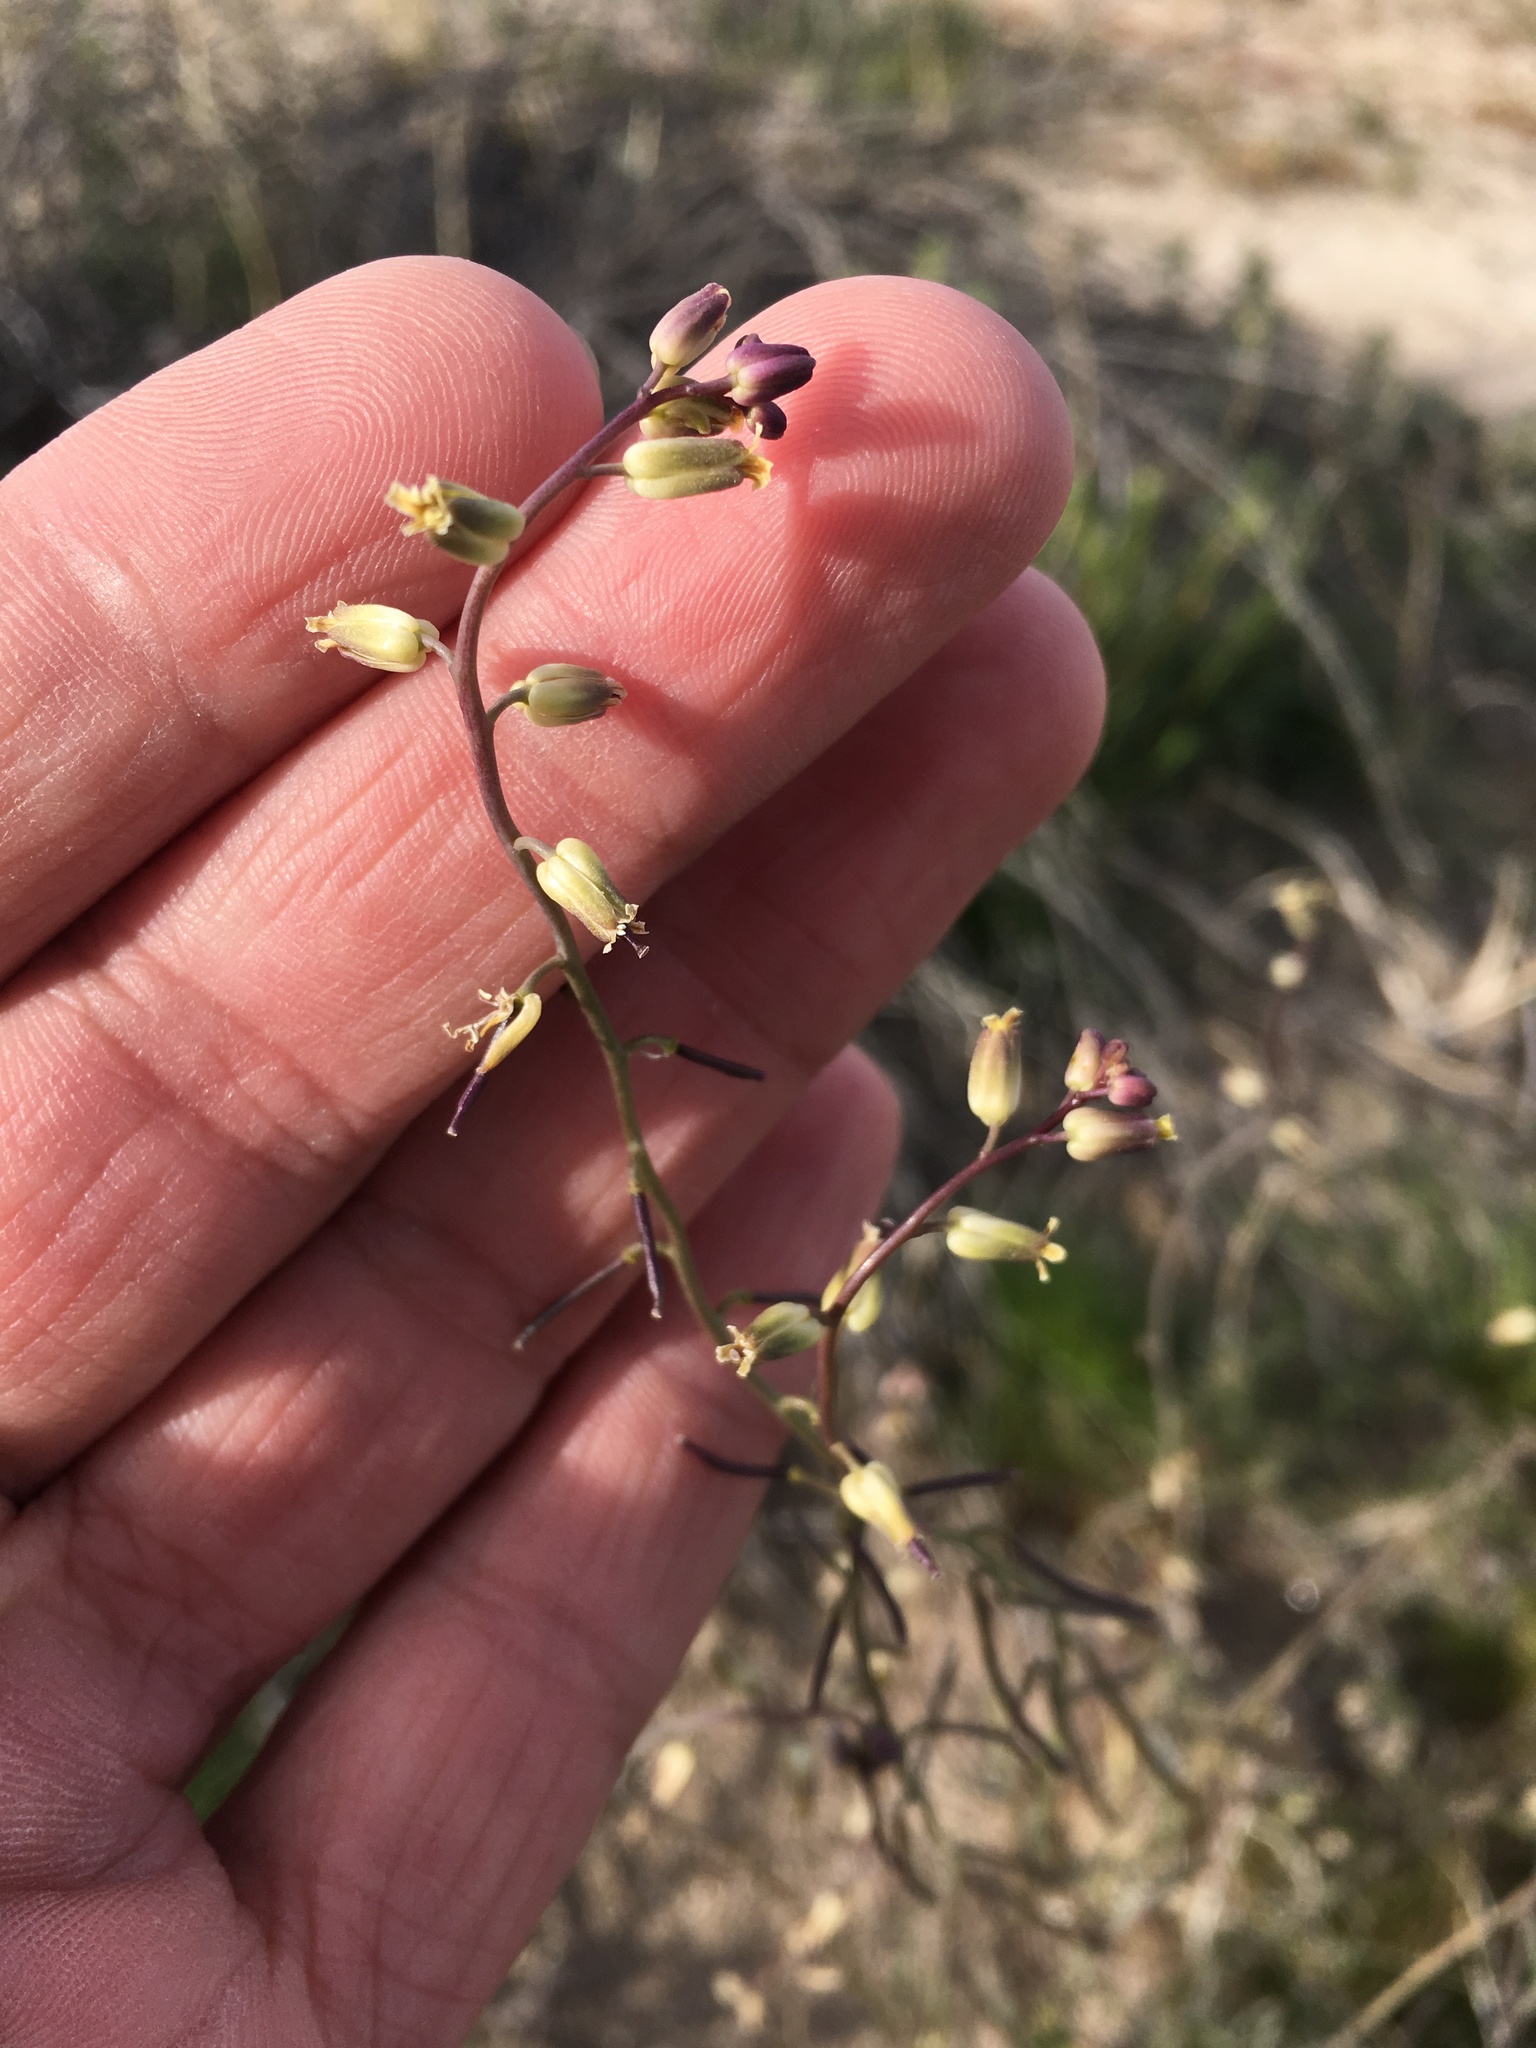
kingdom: Plantae
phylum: Tracheophyta
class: Magnoliopsida
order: Brassicales
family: Brassicaceae
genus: Streptanthus
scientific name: Streptanthus longirostris
